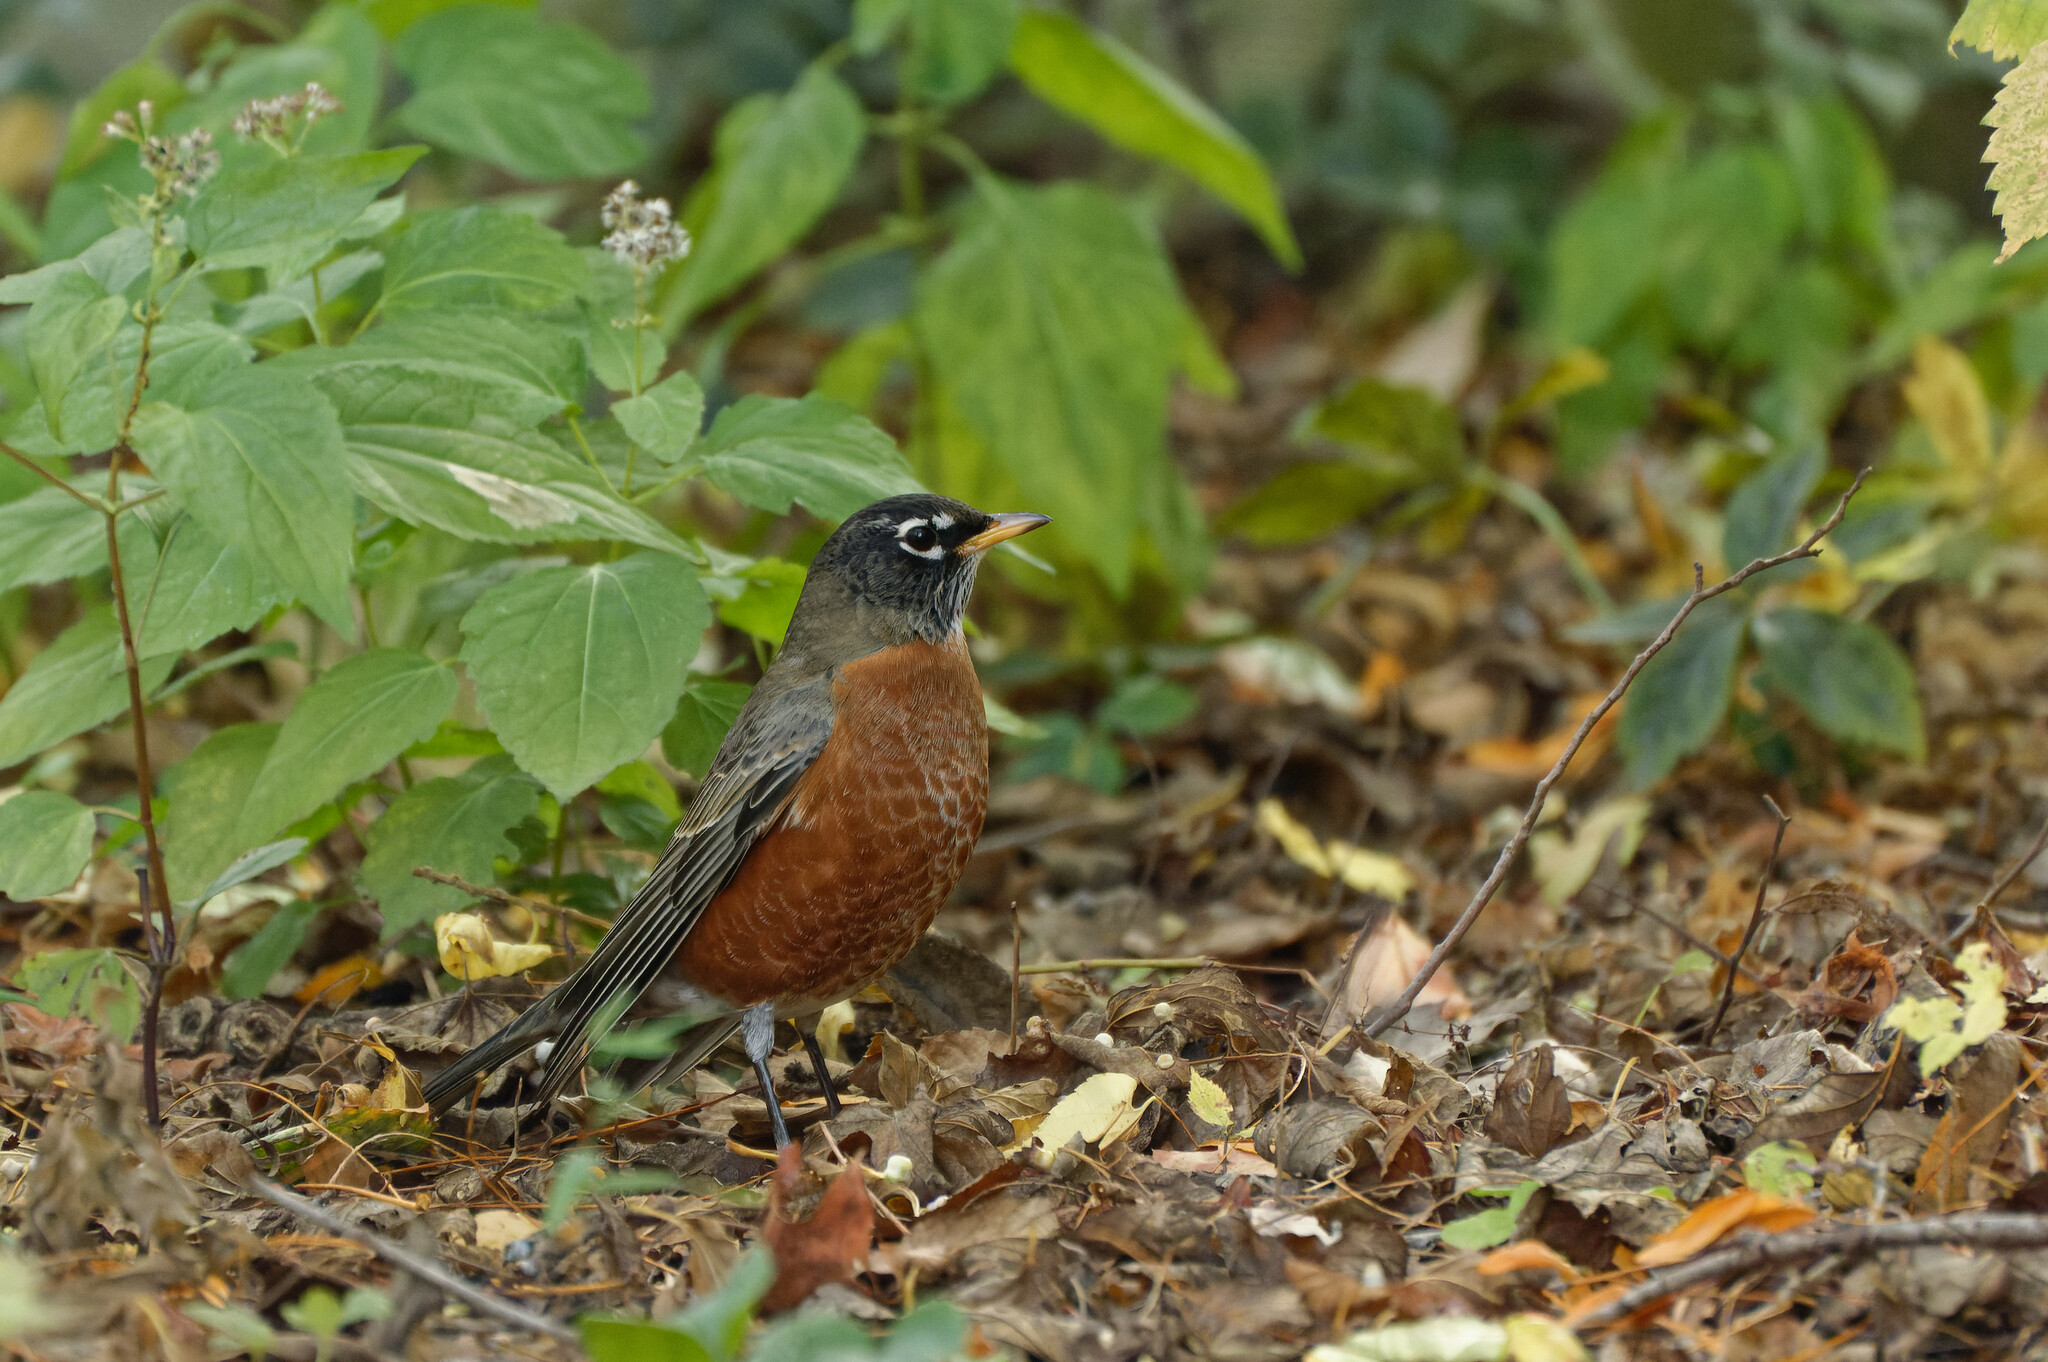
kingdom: Animalia
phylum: Chordata
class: Aves
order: Passeriformes
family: Turdidae
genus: Turdus
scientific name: Turdus migratorius
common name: American robin
